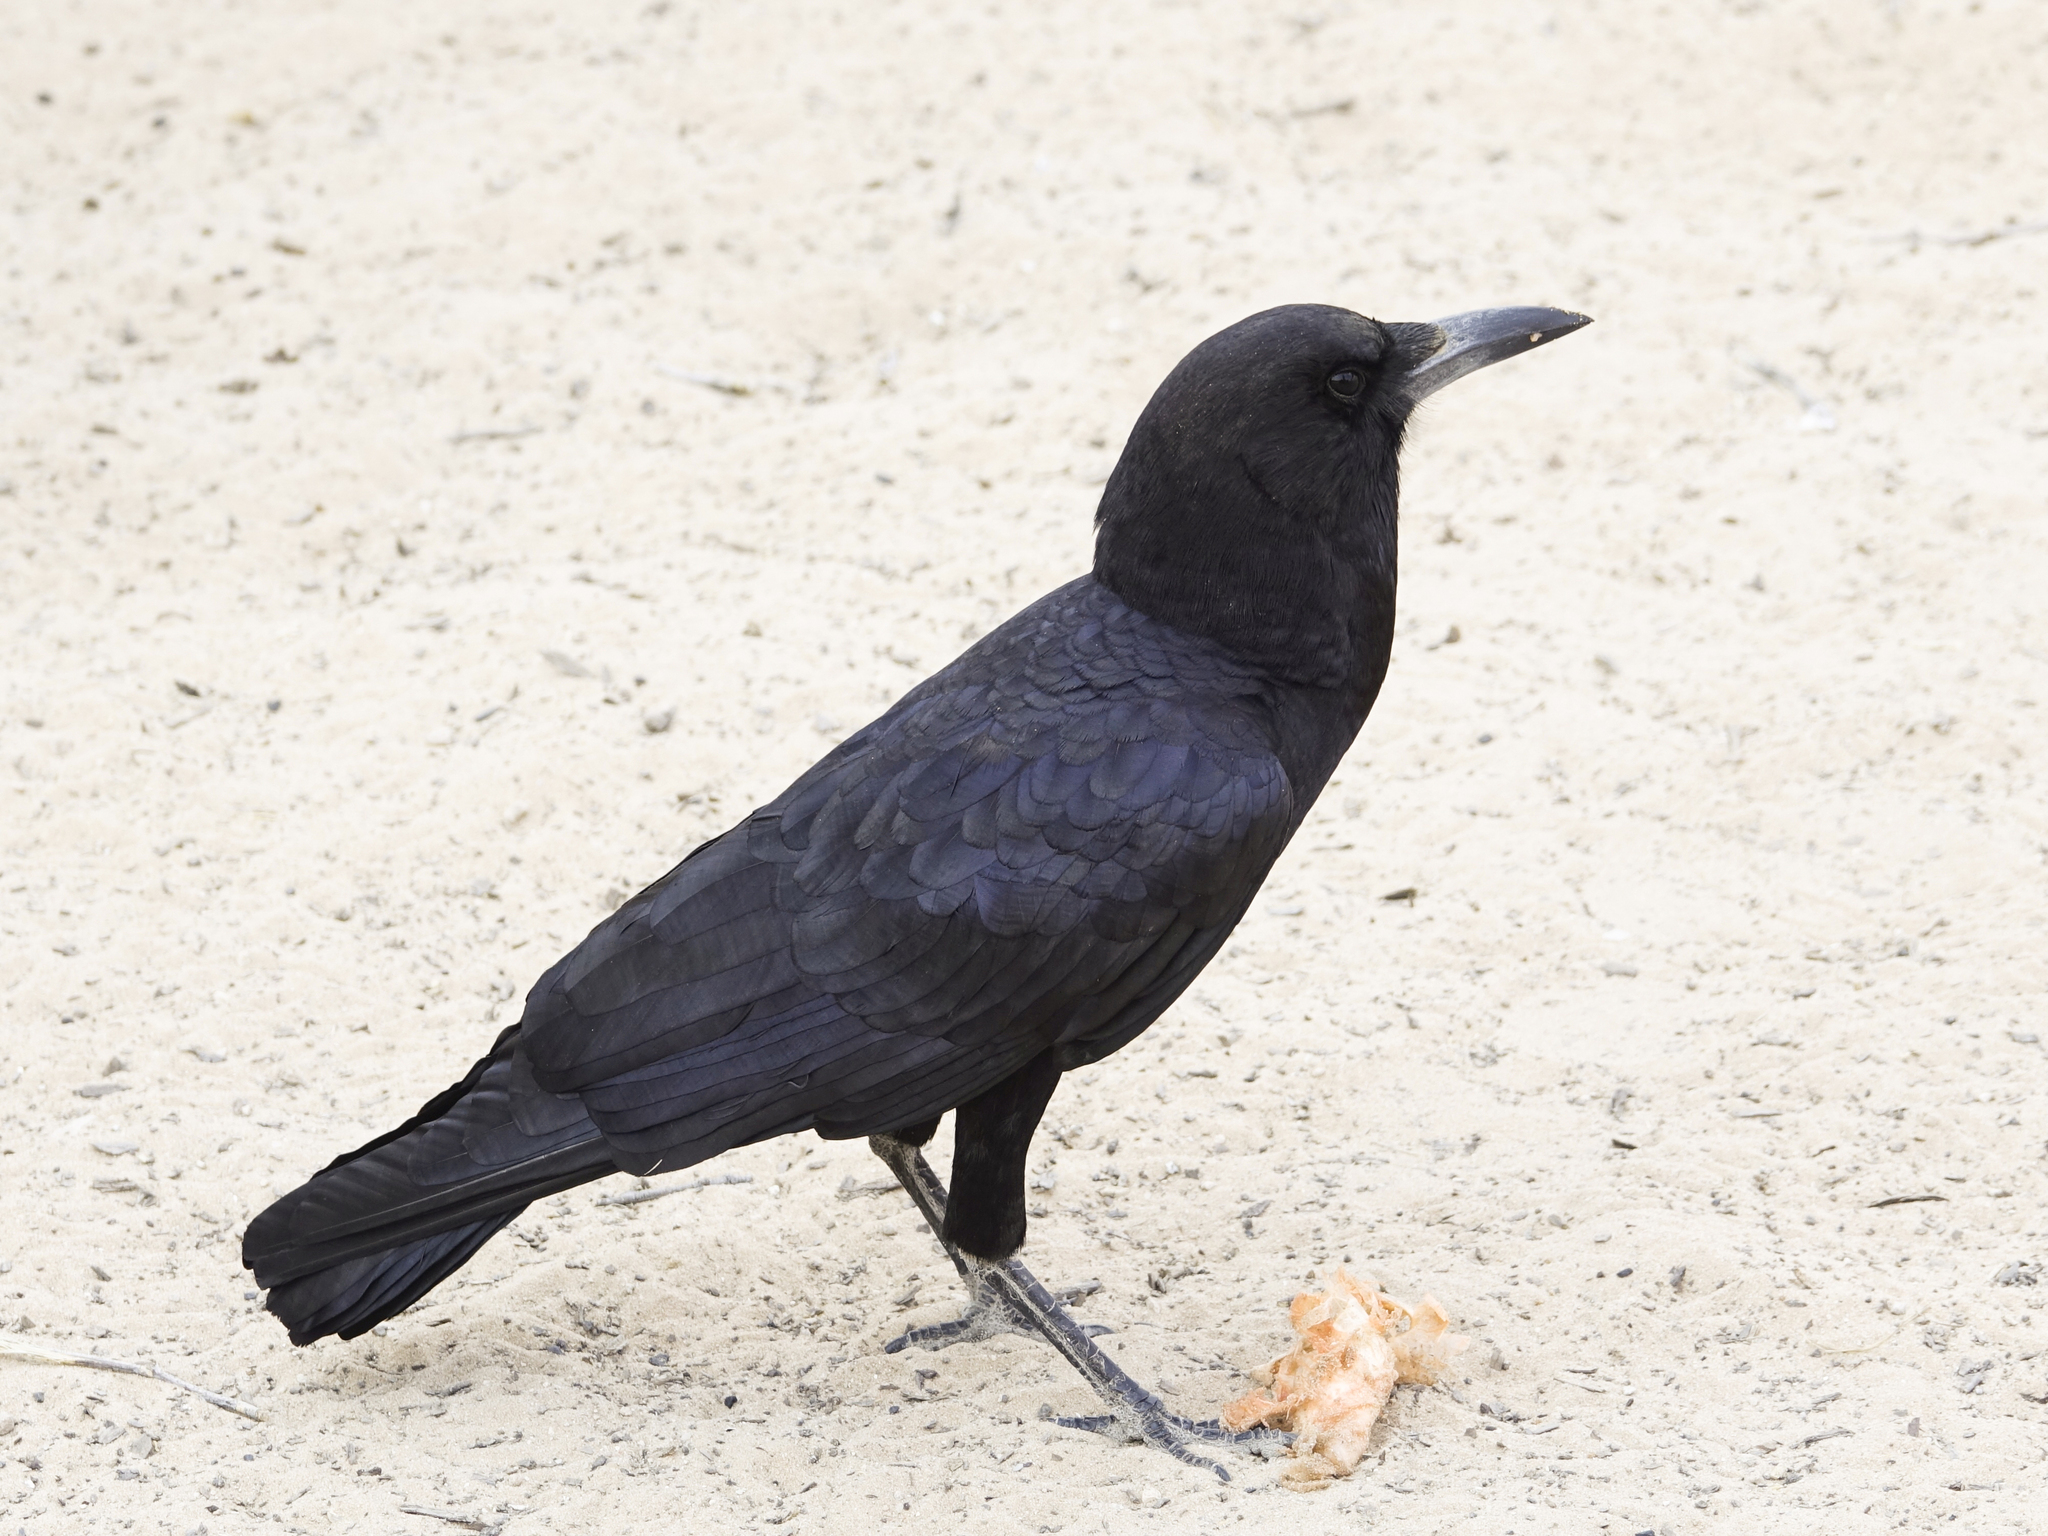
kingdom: Animalia
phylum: Chordata
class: Aves
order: Passeriformes
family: Corvidae
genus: Corvus
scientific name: Corvus capensis
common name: Cape crow
